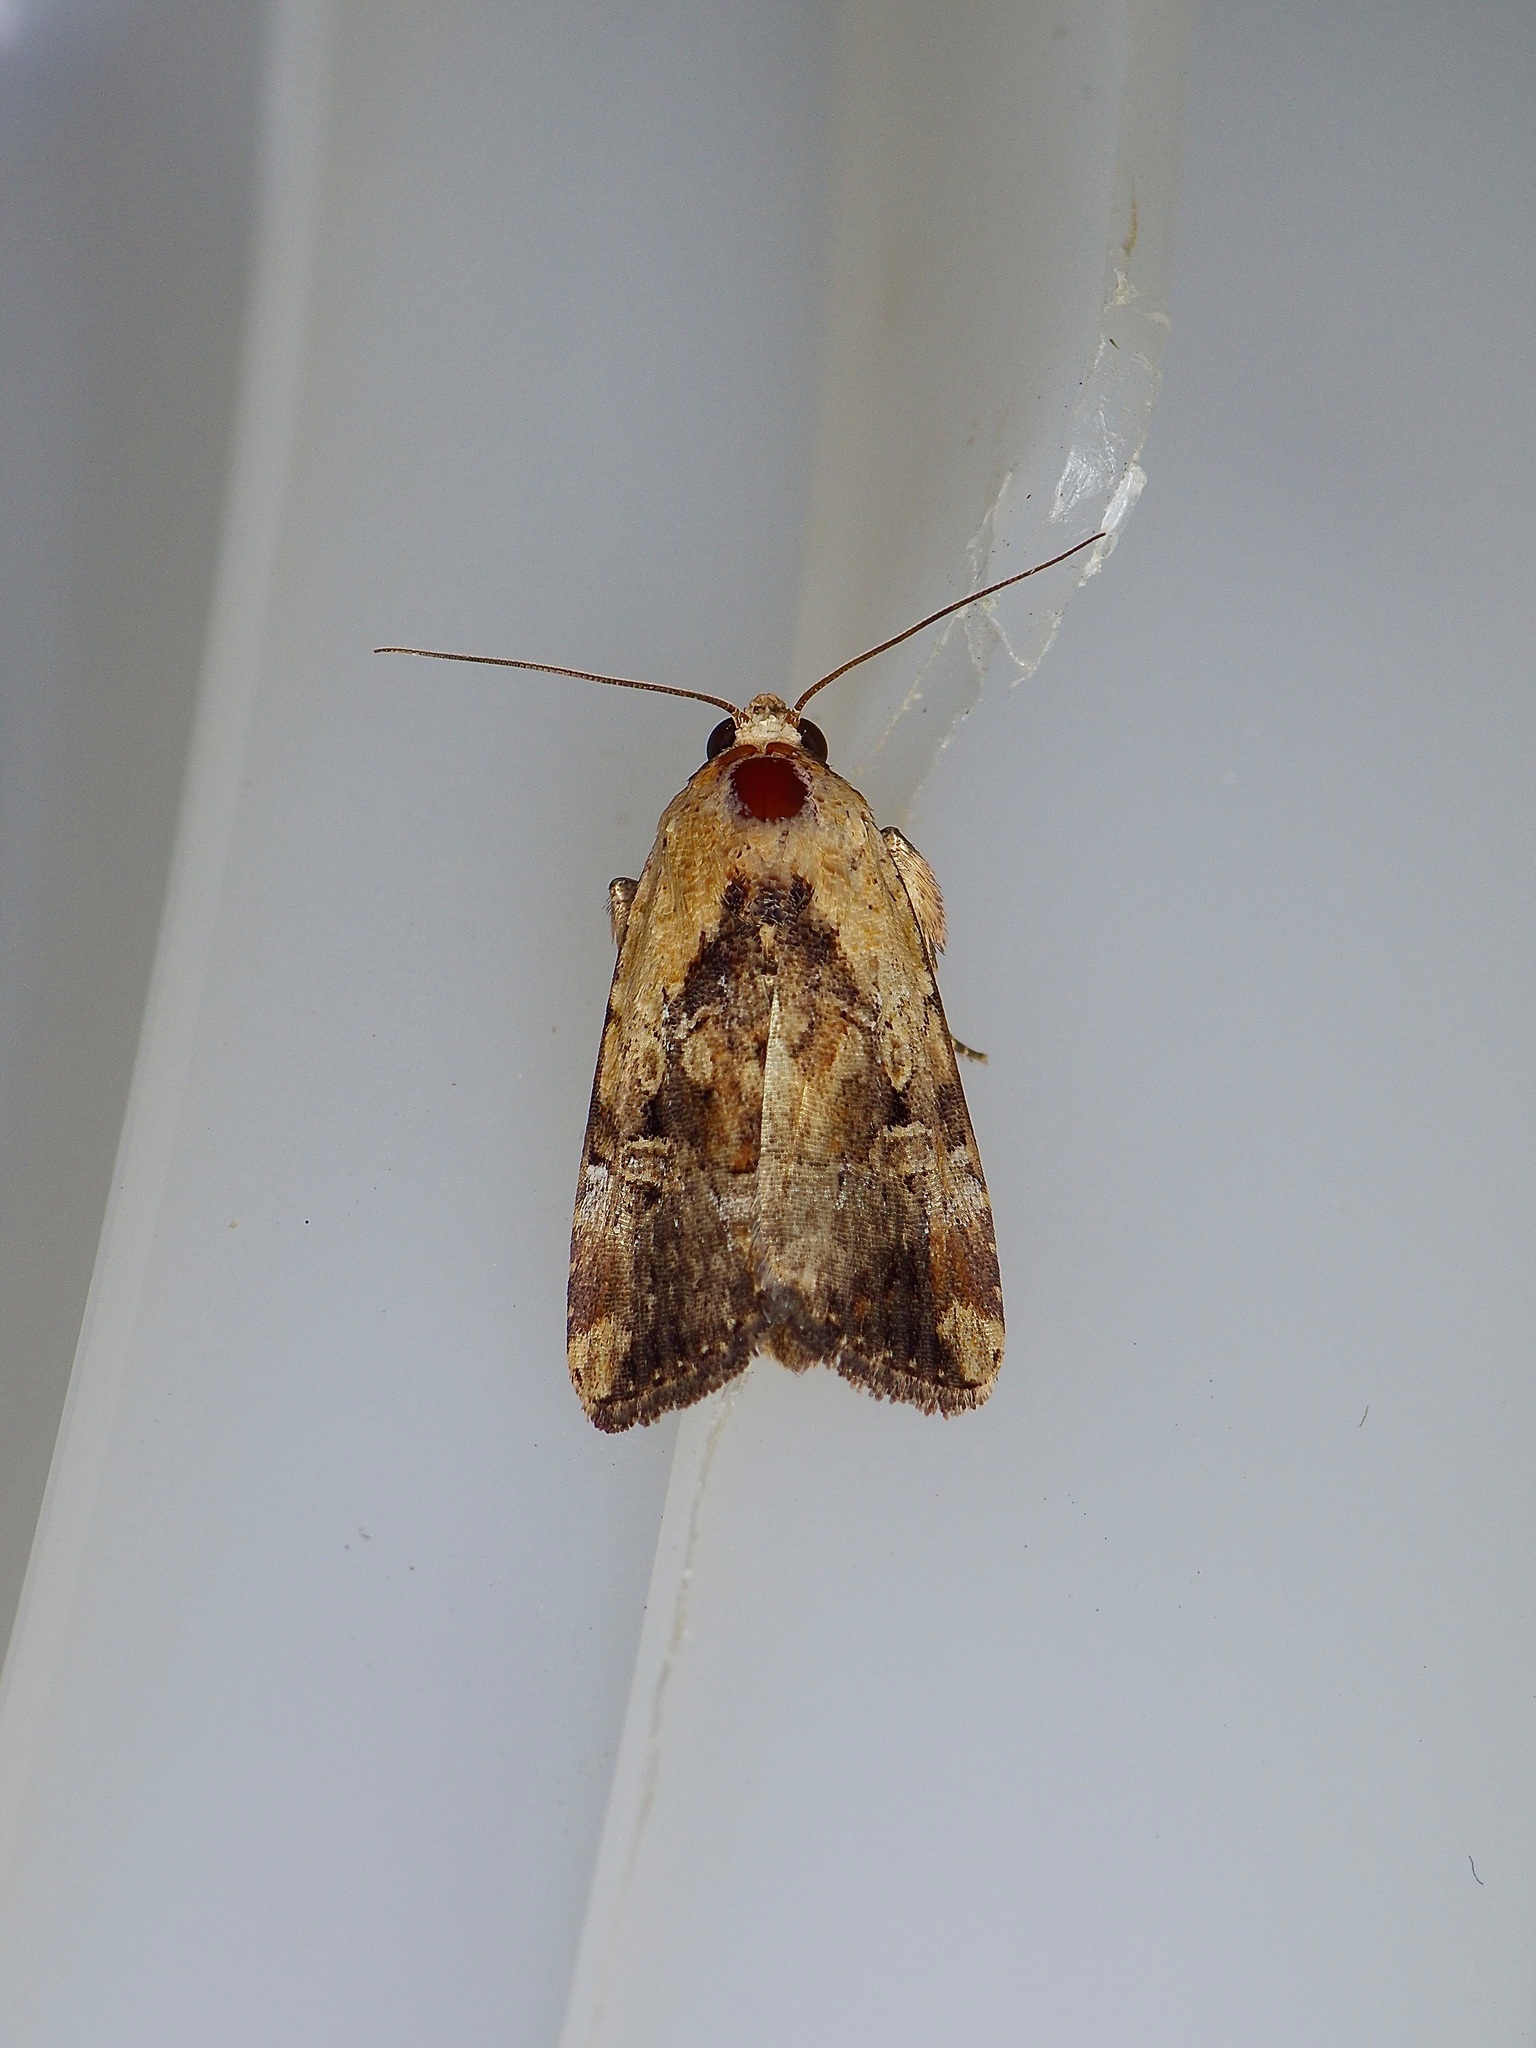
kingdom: Animalia
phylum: Arthropoda
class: Insecta
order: Lepidoptera
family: Noctuidae
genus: Elaphria
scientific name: Elaphria chalcedonia
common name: Chalcedony midget
